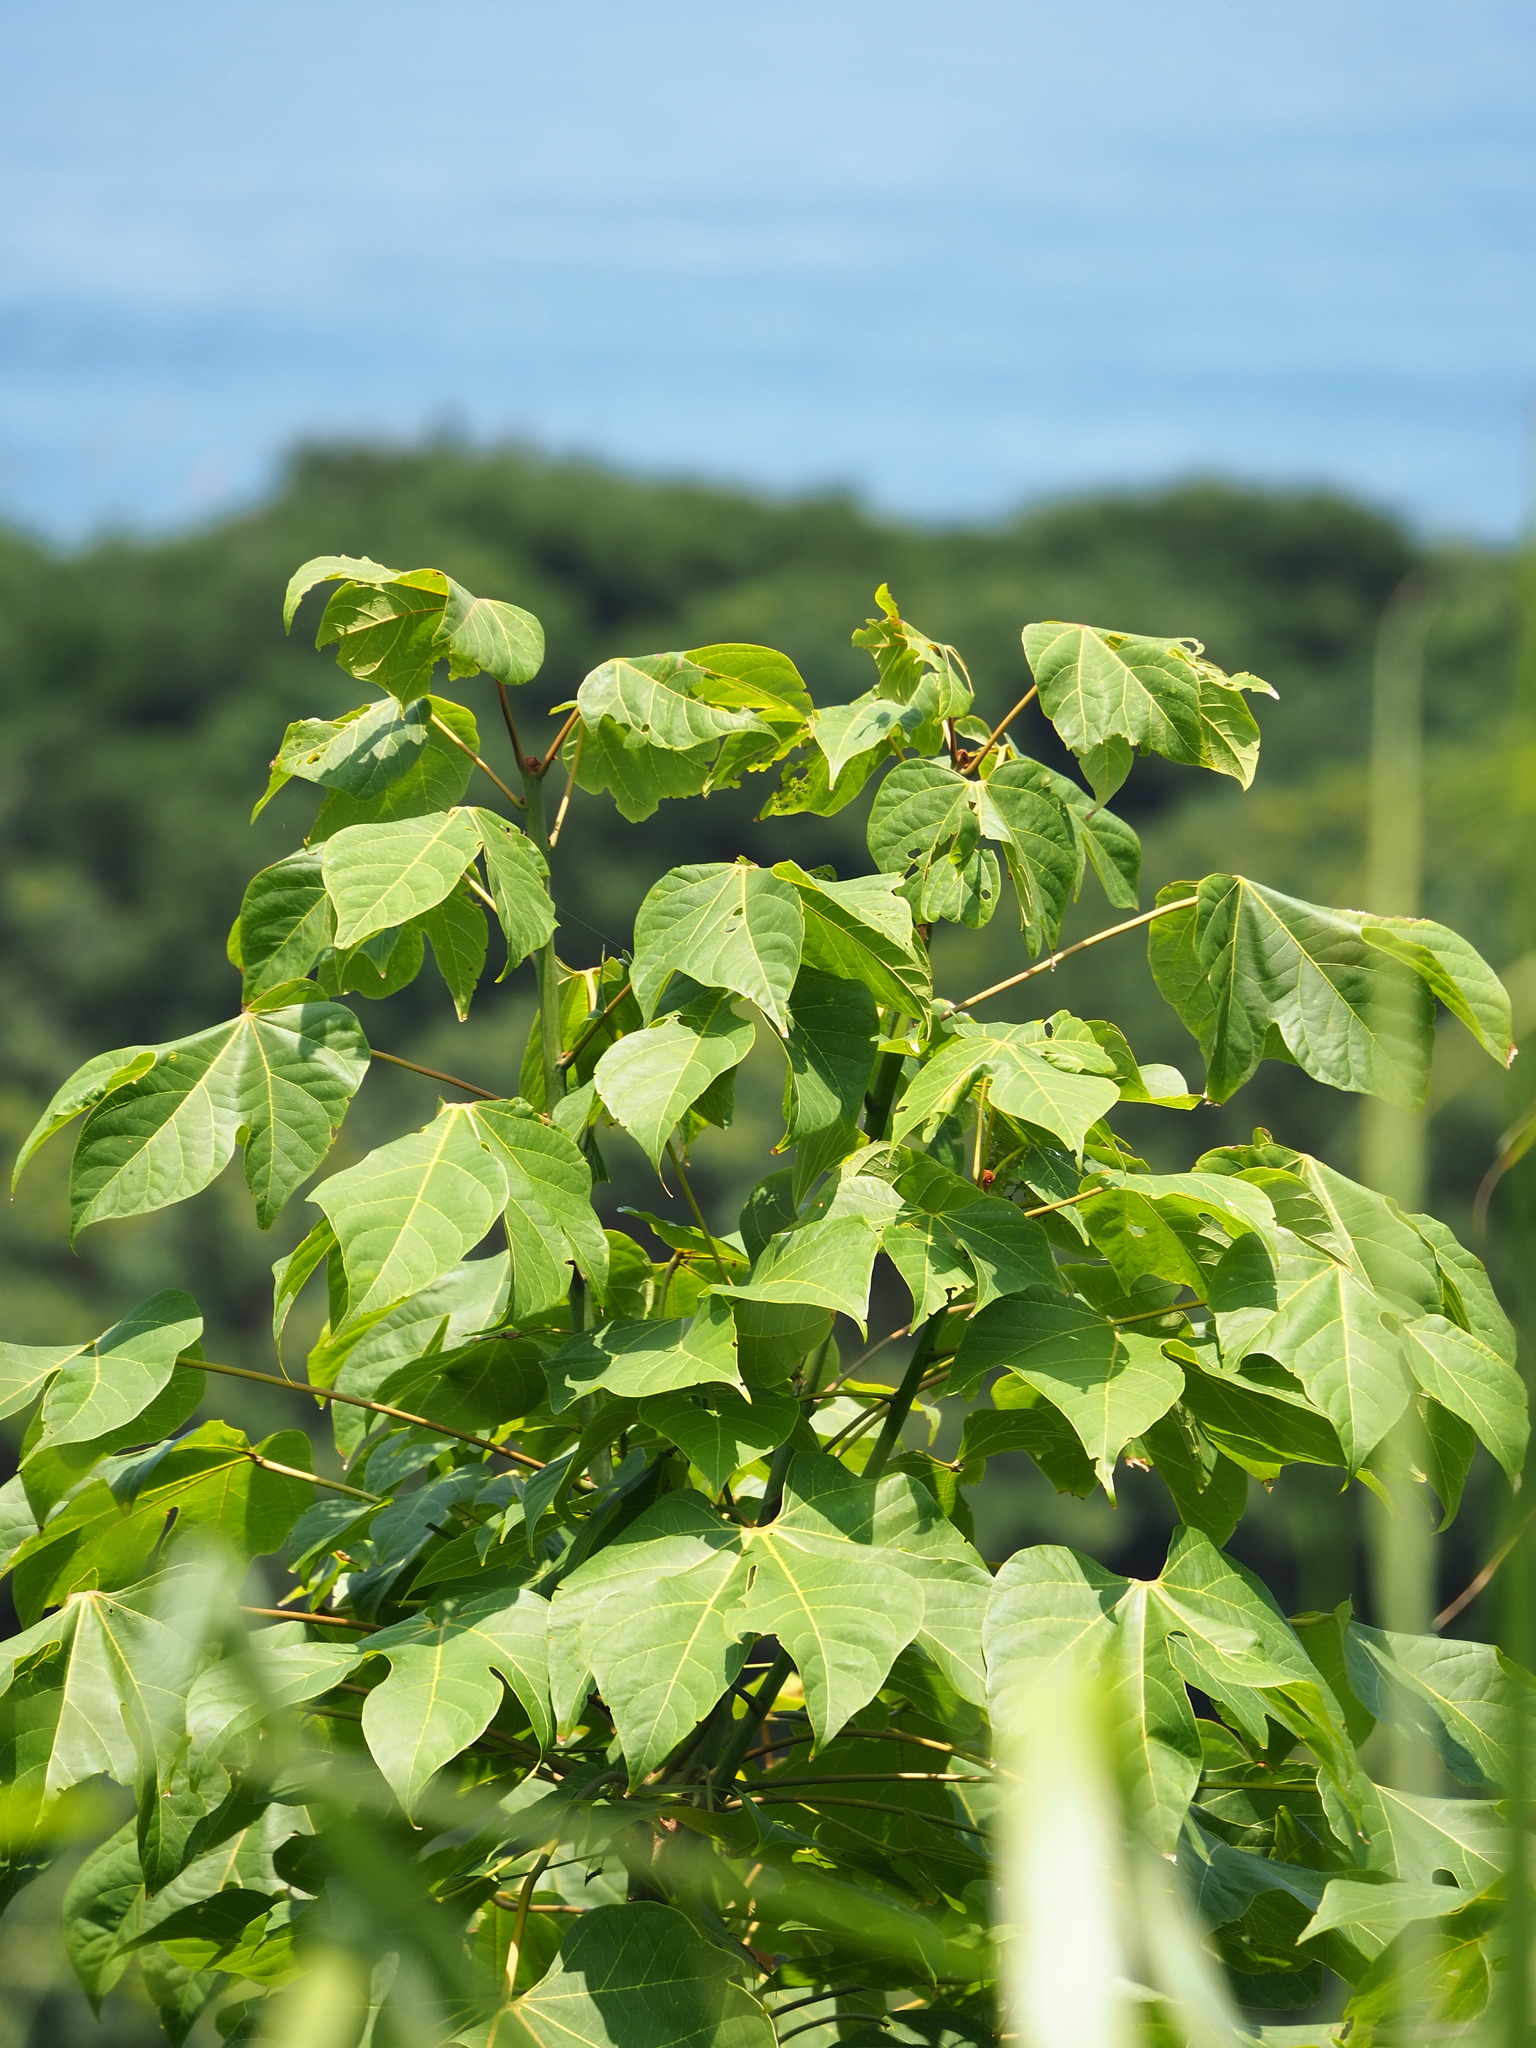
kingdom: Plantae
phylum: Tracheophyta
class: Magnoliopsida
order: Malvales
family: Malvaceae
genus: Firmiana
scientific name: Firmiana simplex
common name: Chinese parasoltree
